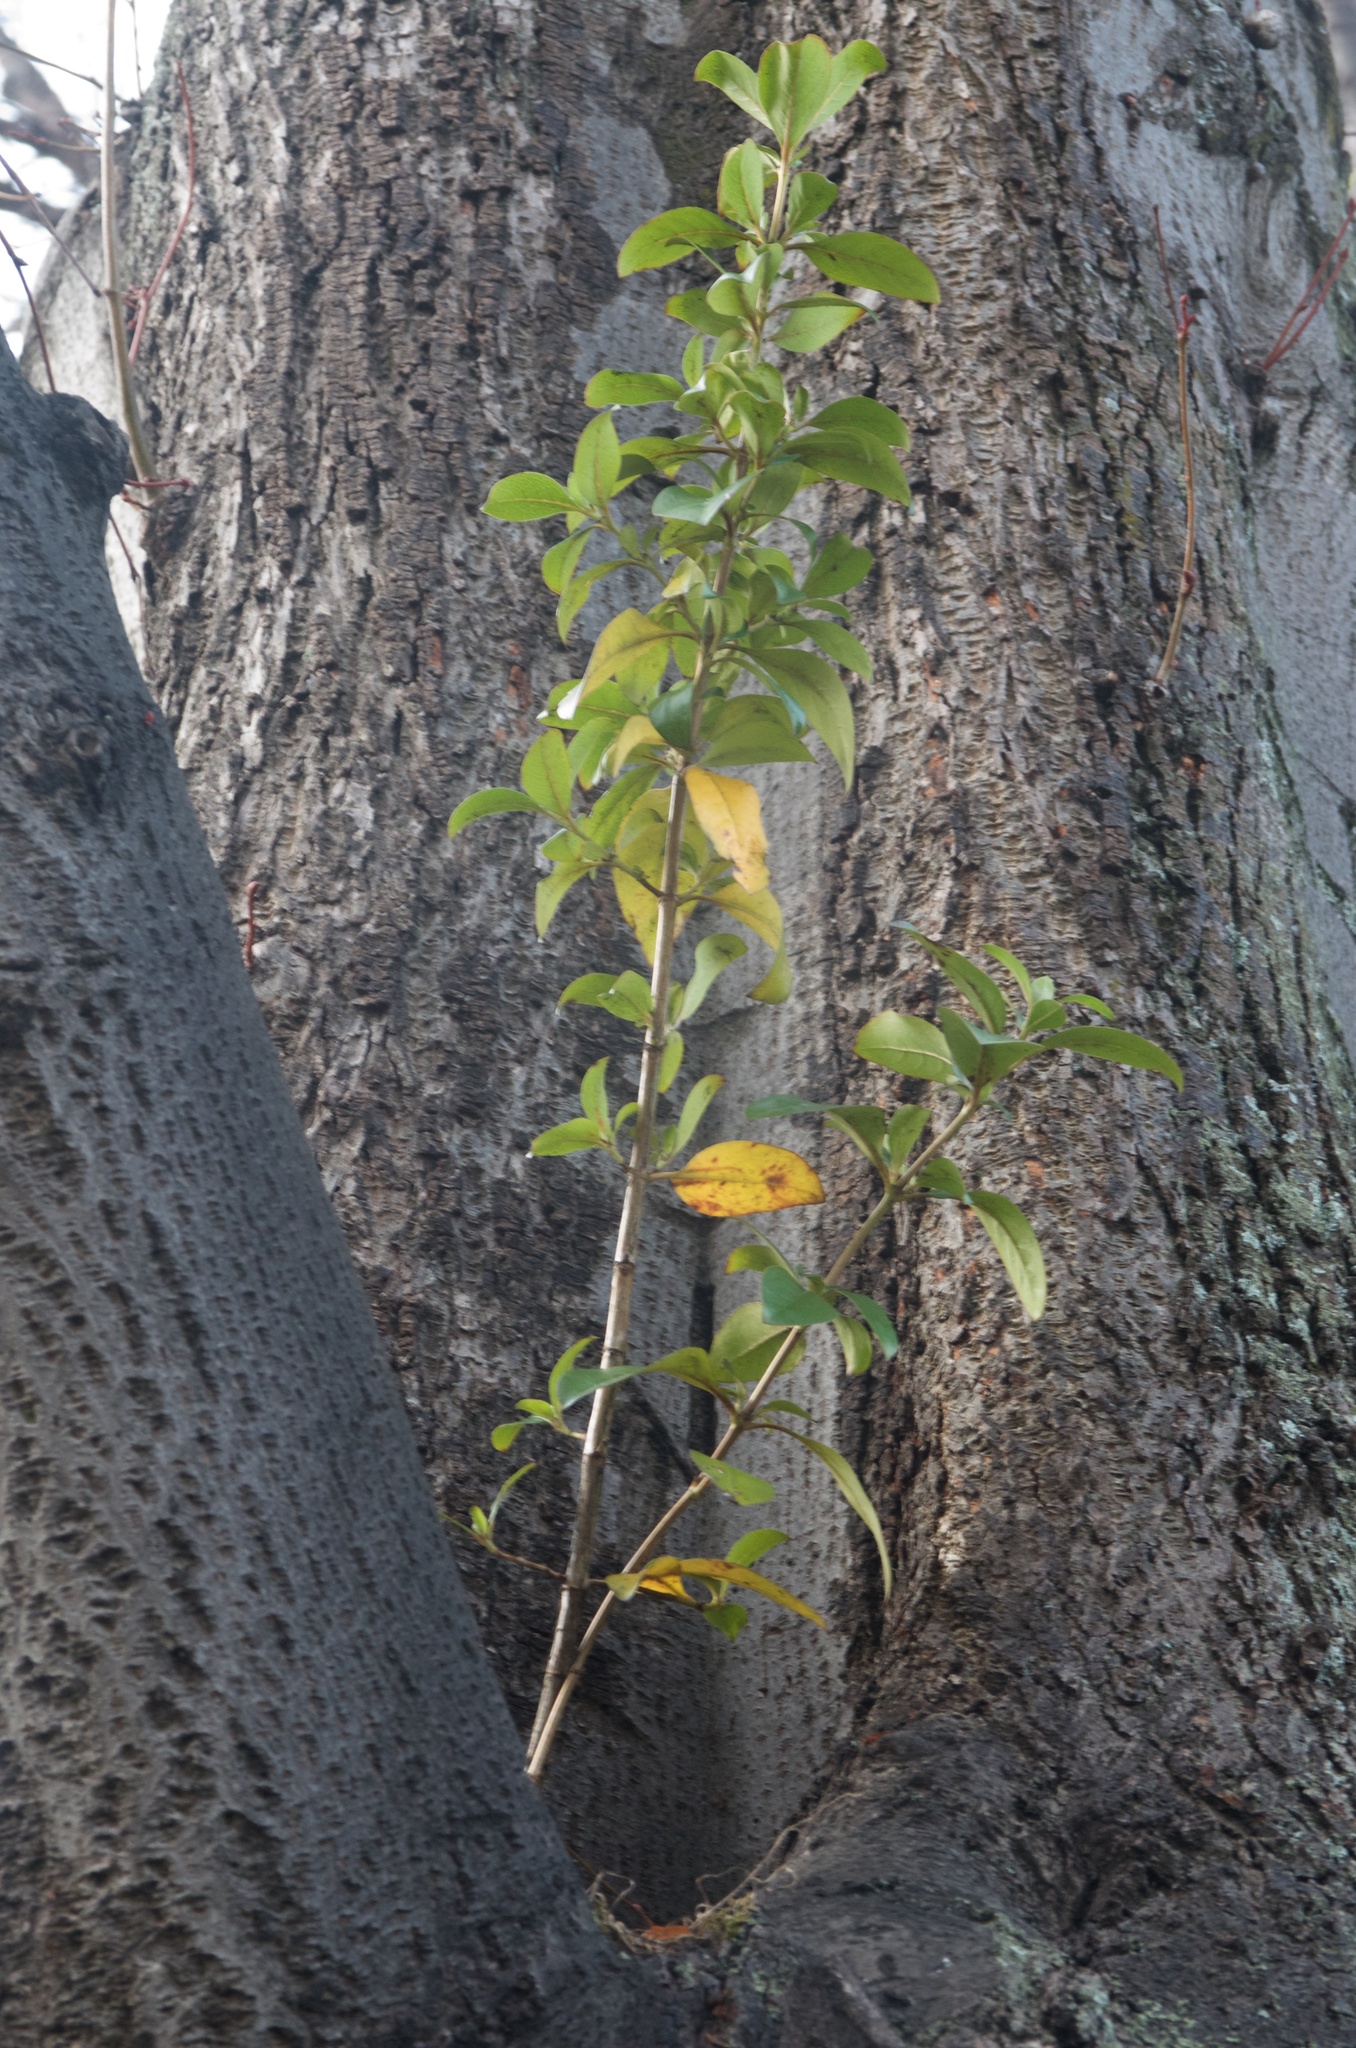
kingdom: Plantae
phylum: Tracheophyta
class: Magnoliopsida
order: Gentianales
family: Rubiaceae
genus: Coprosma
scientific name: Coprosma robusta
